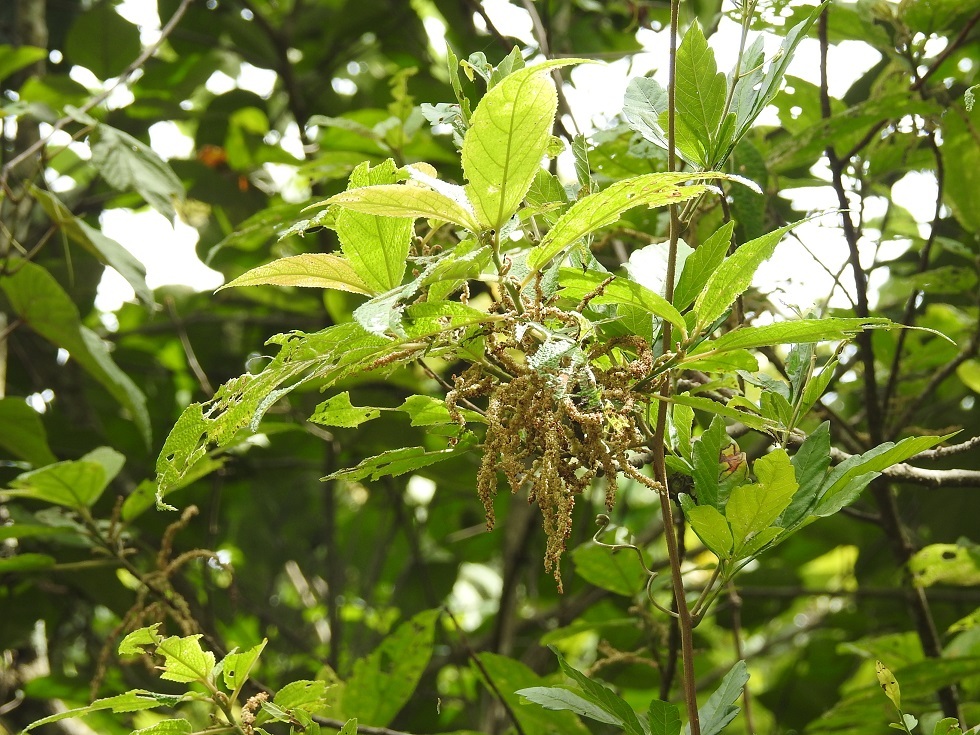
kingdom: Plantae
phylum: Tracheophyta
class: Magnoliopsida
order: Rosales
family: Urticaceae
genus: Myriocarpa
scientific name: Myriocarpa longipes
